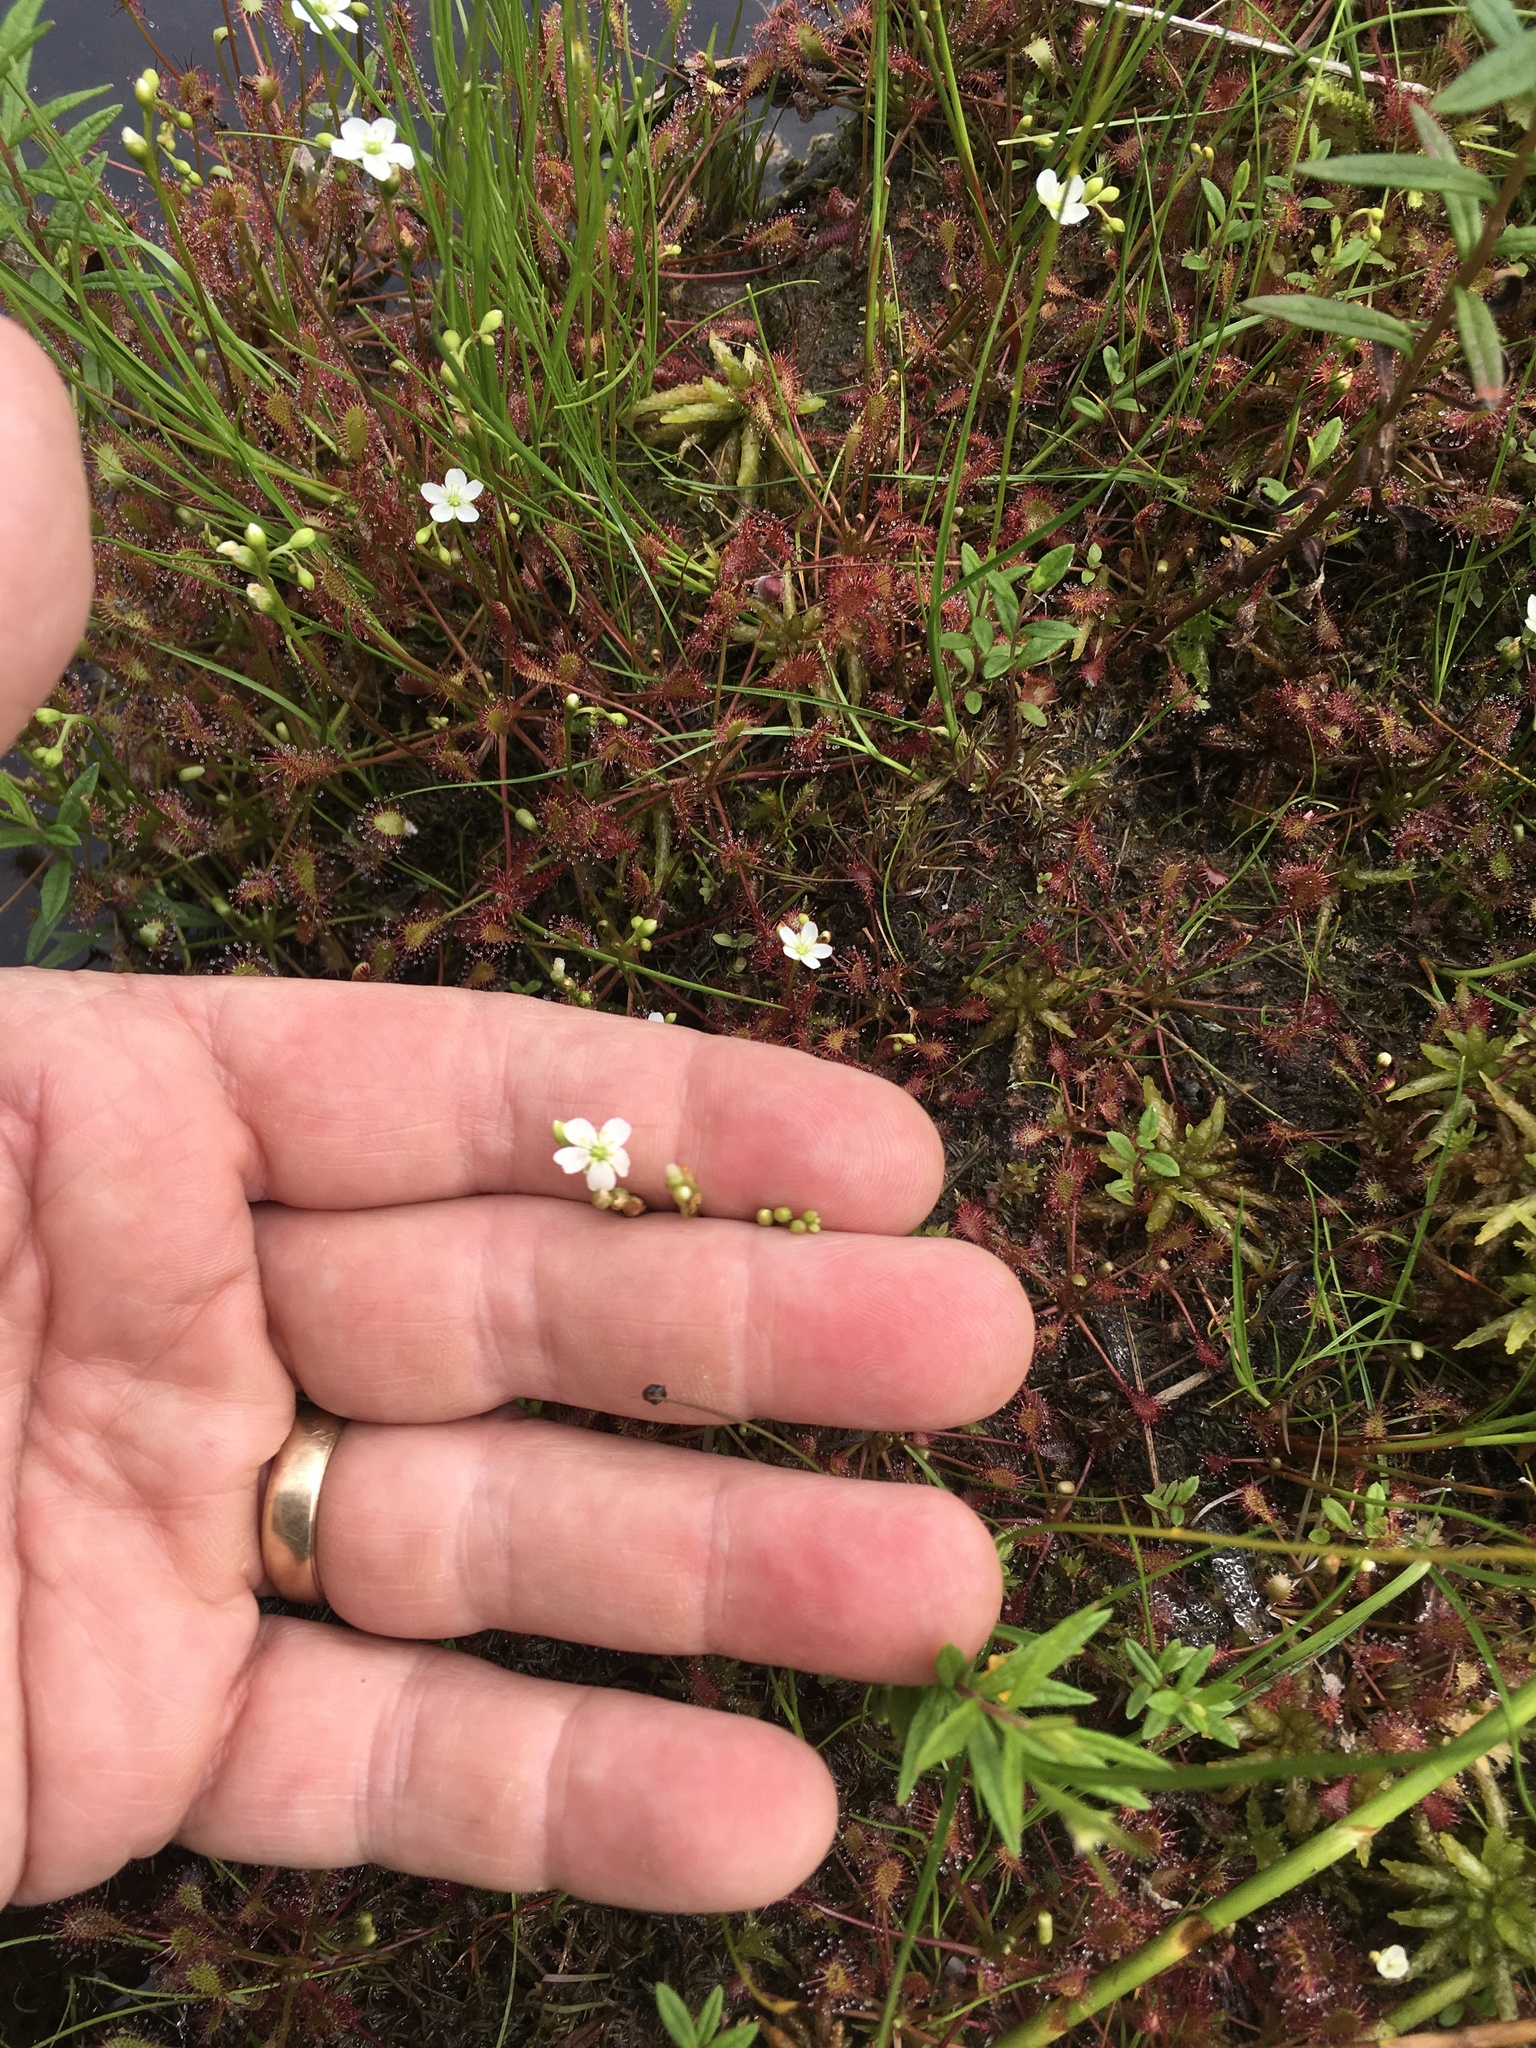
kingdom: Plantae
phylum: Tracheophyta
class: Magnoliopsida
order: Caryophyllales
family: Droseraceae
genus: Drosera
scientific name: Drosera intermedia
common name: Oblong-leaved sundew
